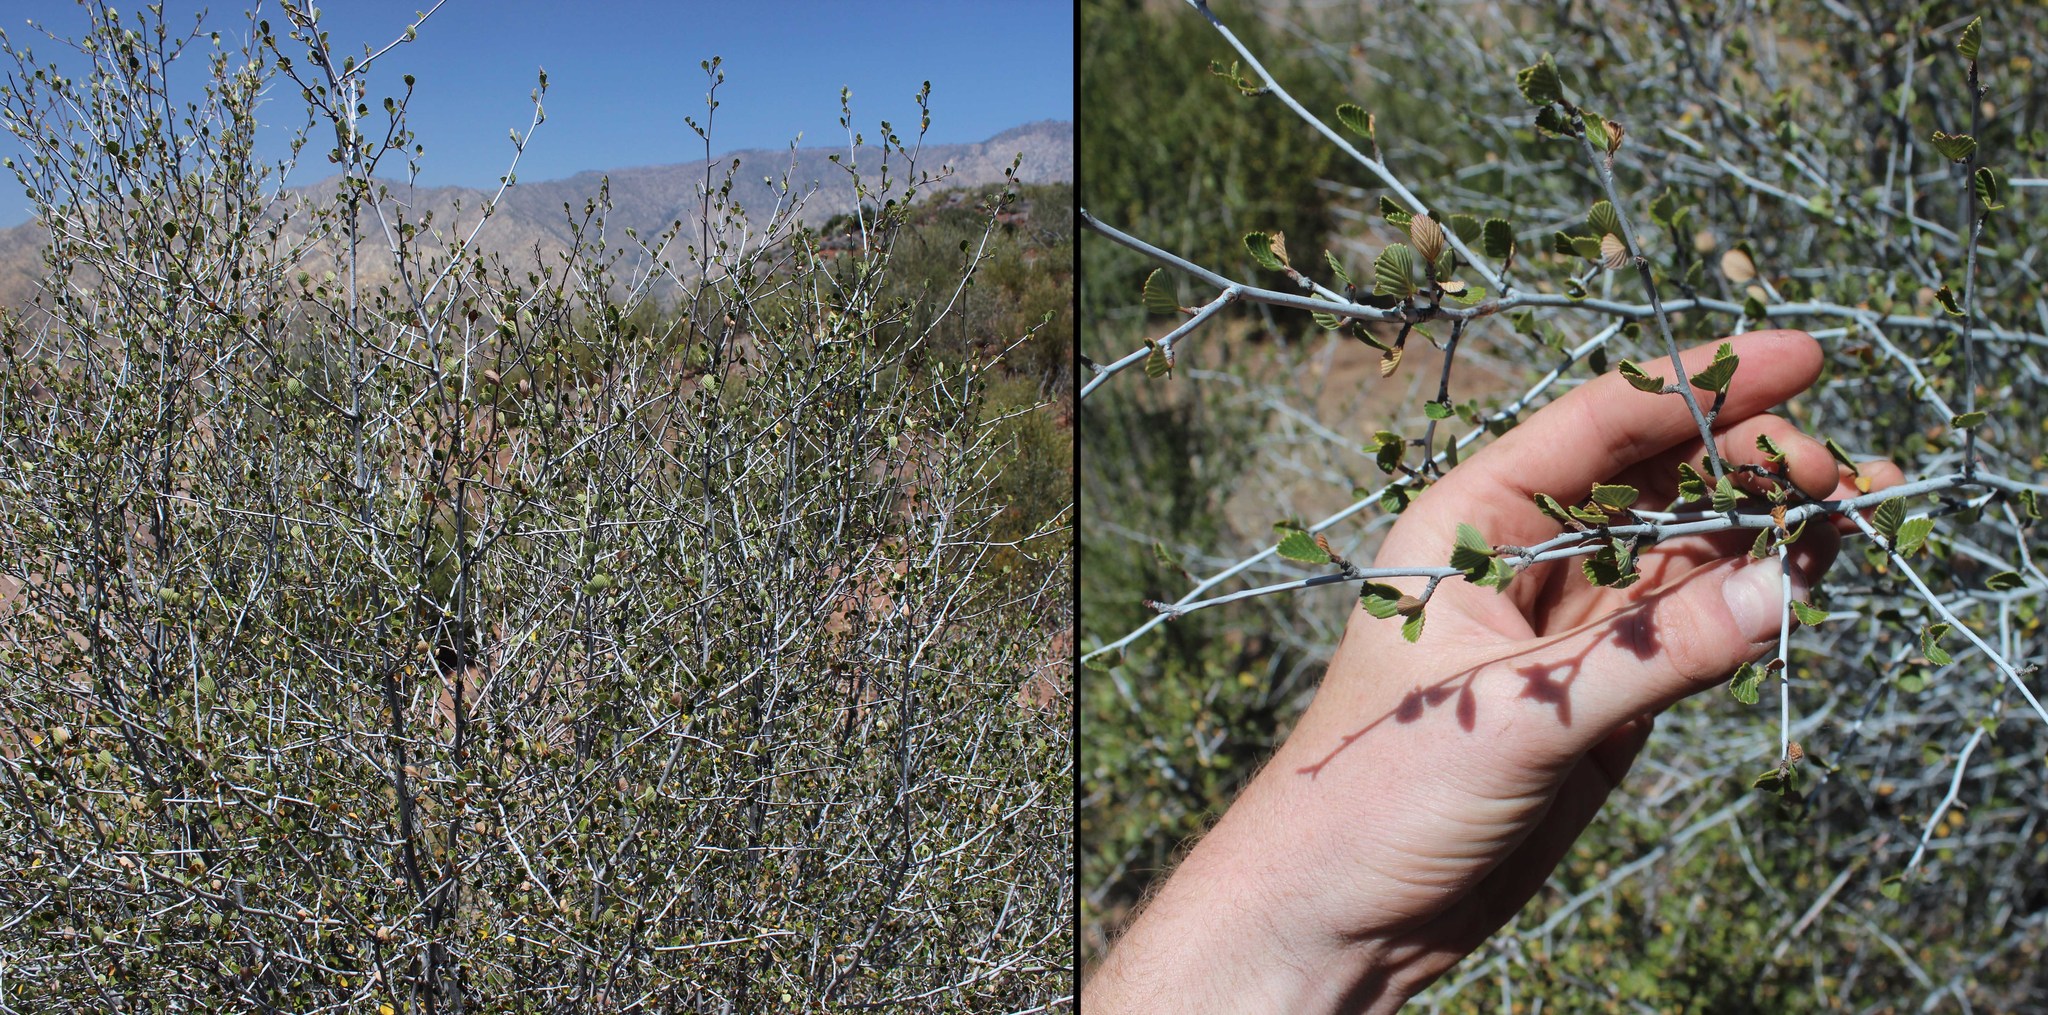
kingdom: Plantae
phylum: Tracheophyta
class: Magnoliopsida
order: Rosales
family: Rosaceae
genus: Cercocarpus
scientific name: Cercocarpus betuloides
